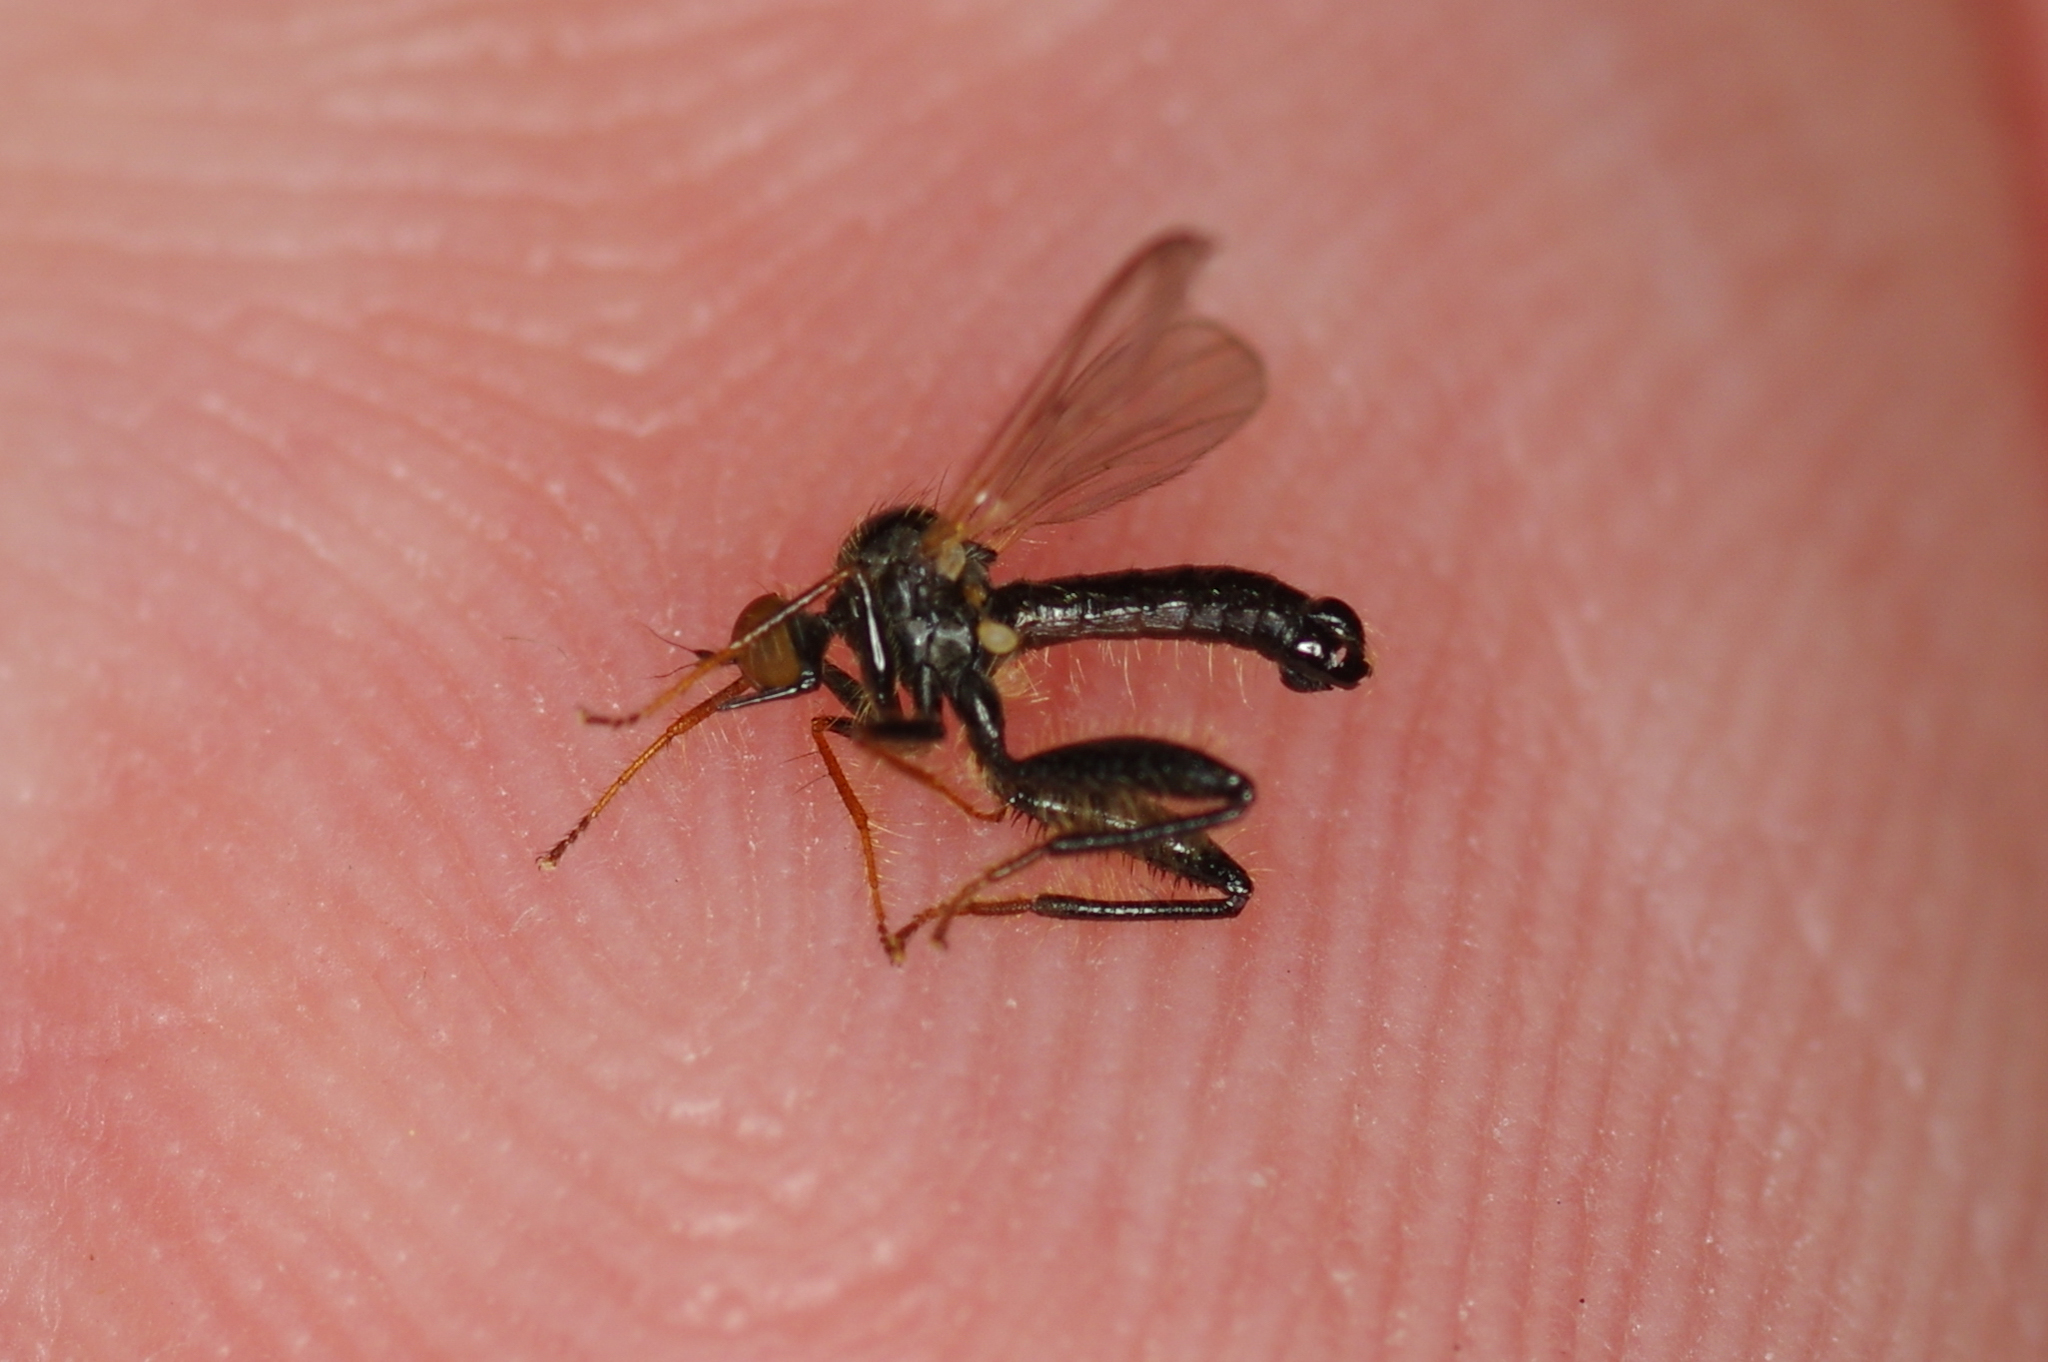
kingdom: Animalia
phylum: Arthropoda
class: Insecta
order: Diptera
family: Hybotidae
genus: Hybos
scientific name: Hybos reversus
